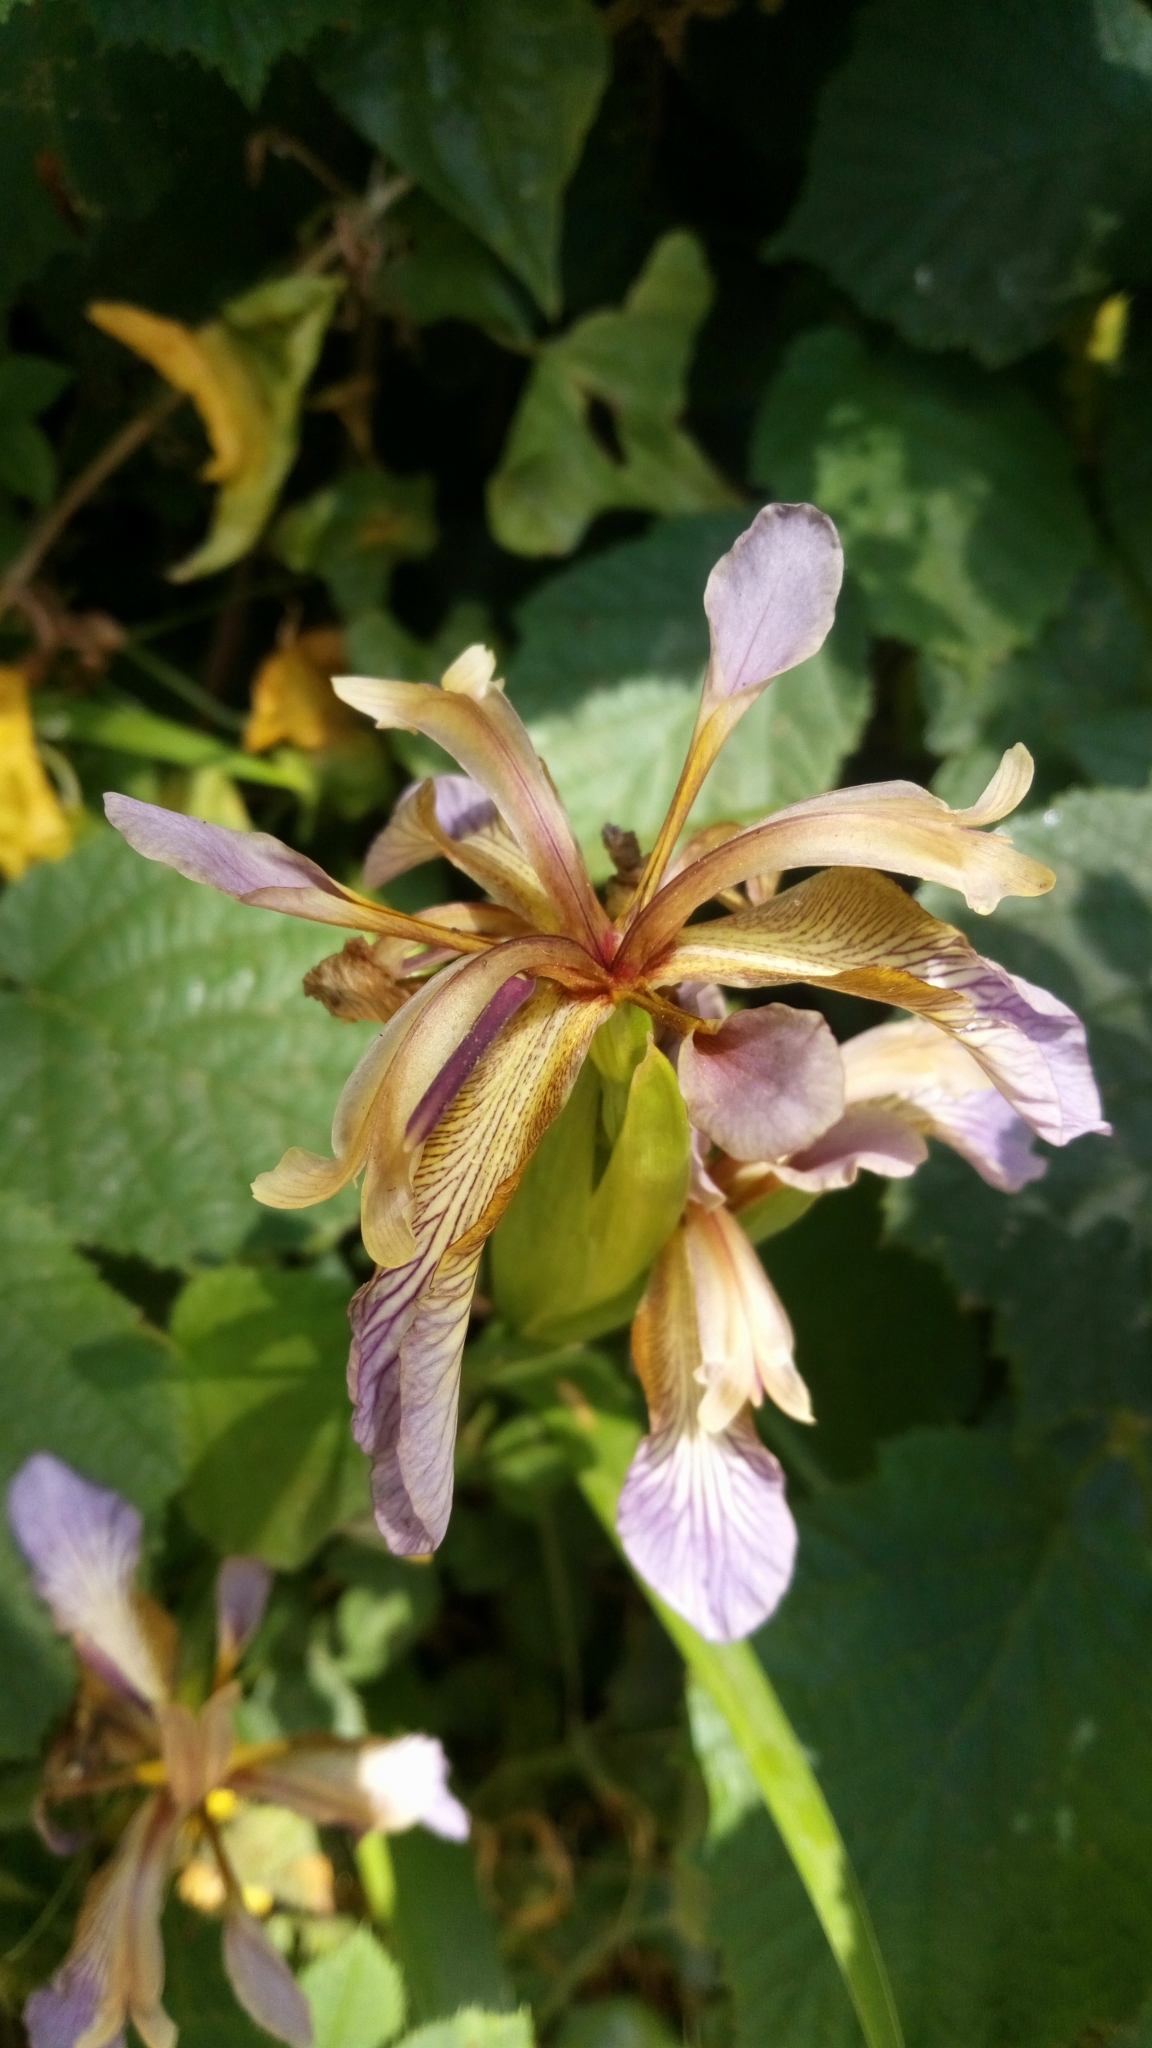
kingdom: Plantae
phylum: Tracheophyta
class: Liliopsida
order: Asparagales
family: Iridaceae
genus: Iris
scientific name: Iris foetidissima
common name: Stinking iris
